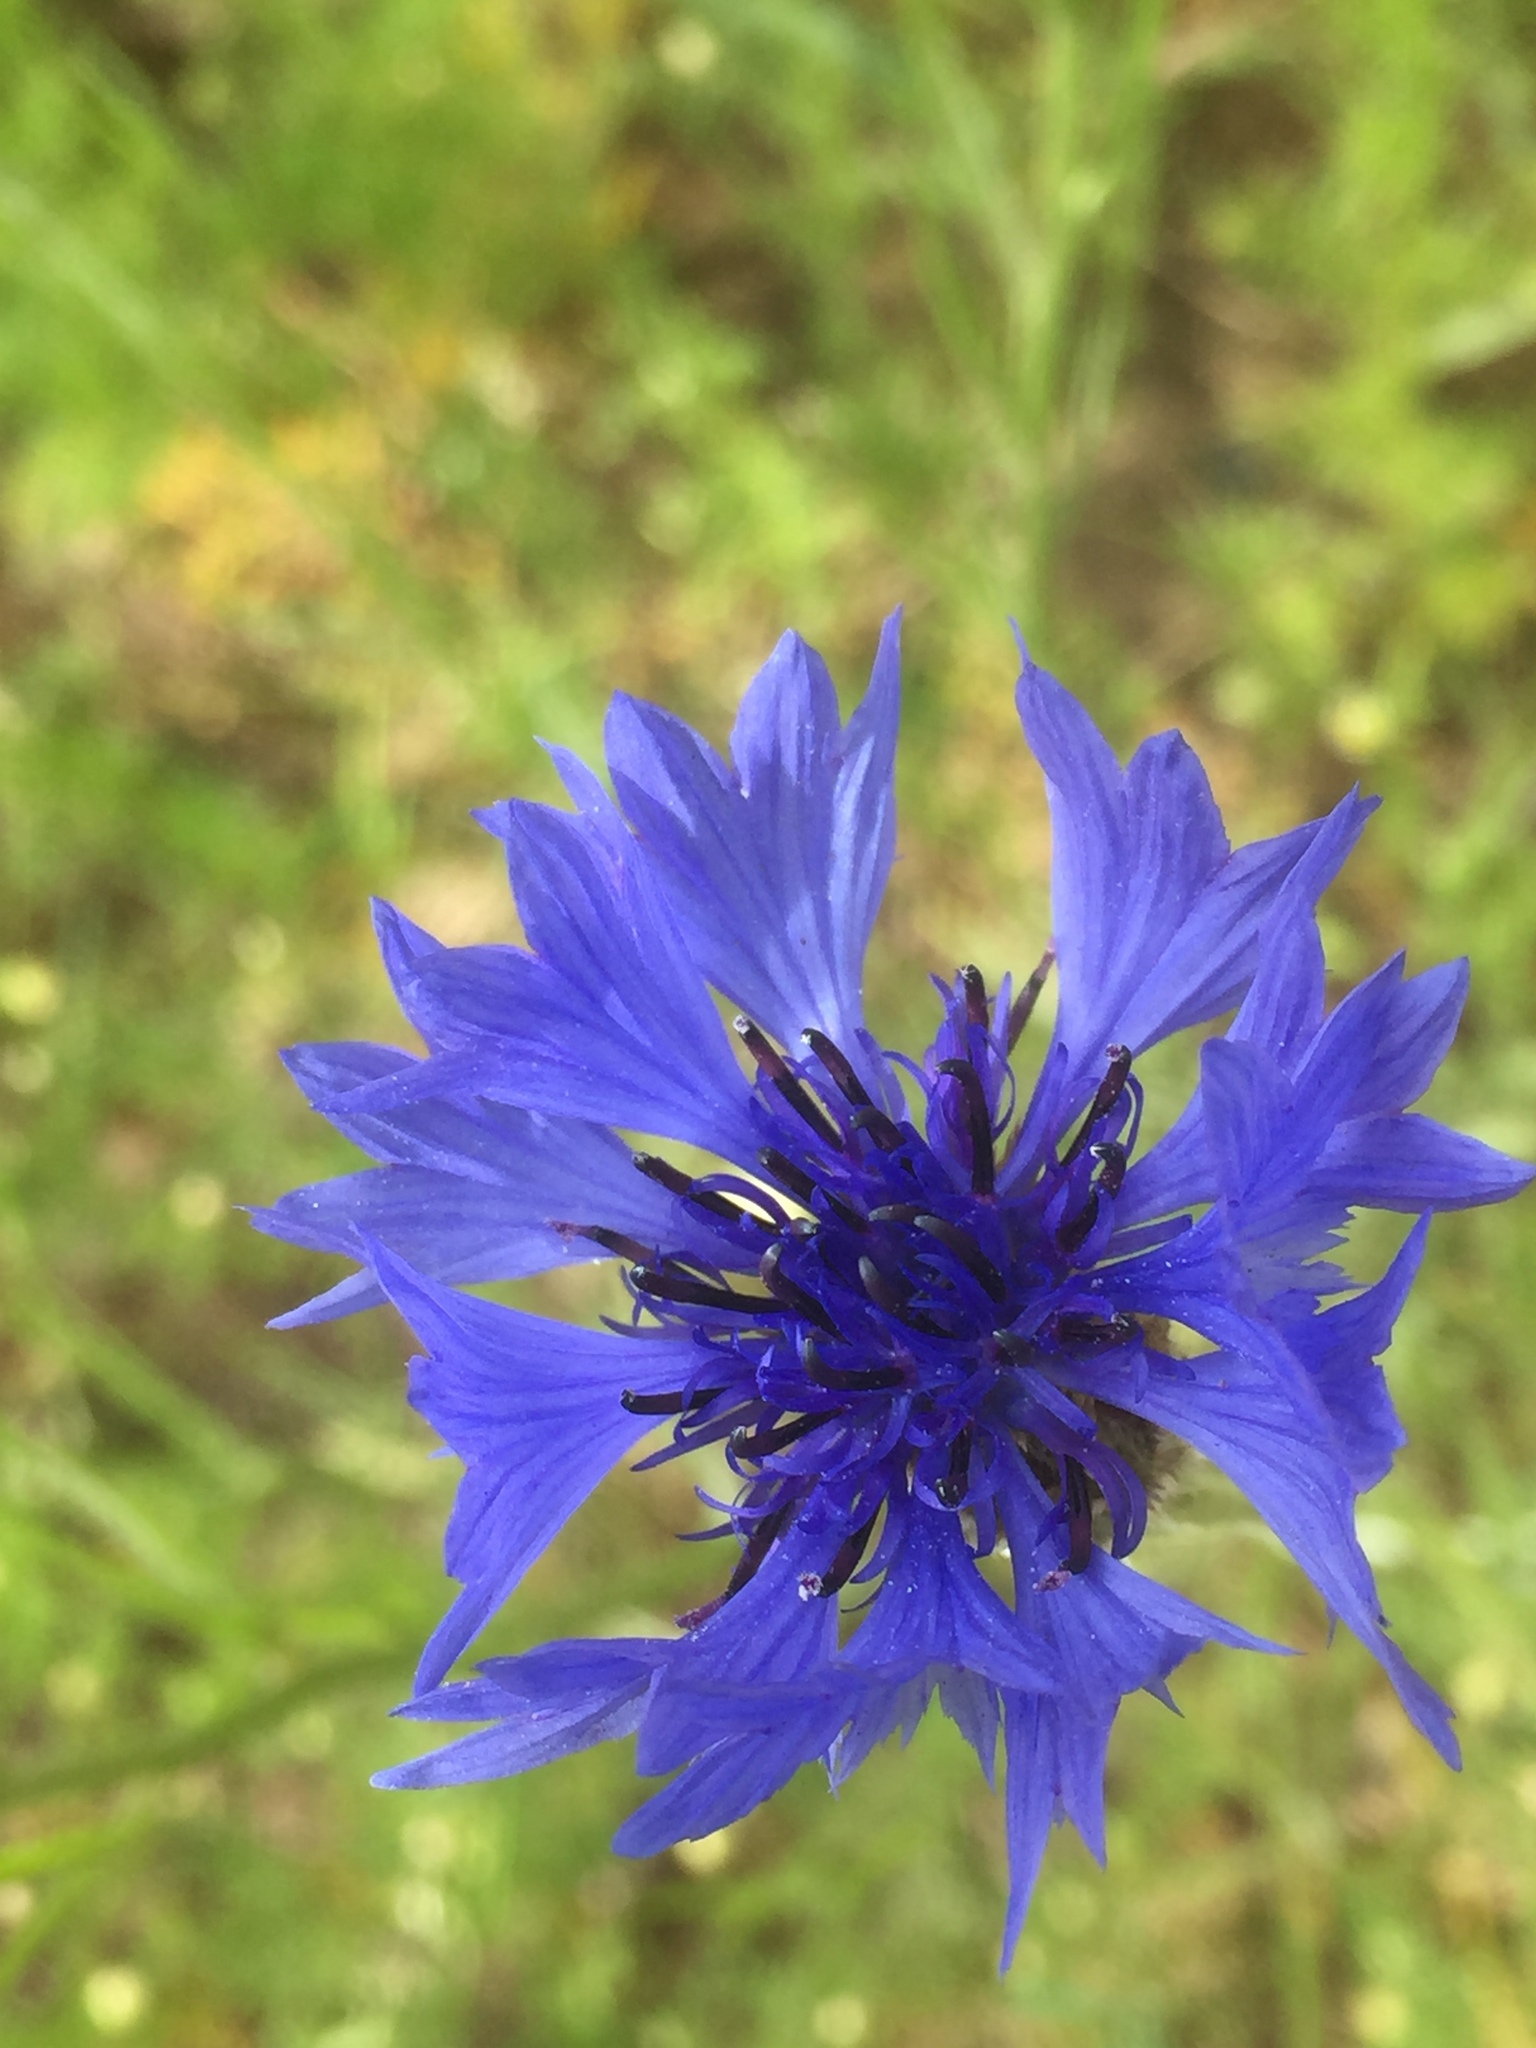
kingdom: Plantae
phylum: Tracheophyta
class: Magnoliopsida
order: Asterales
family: Asteraceae
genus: Centaurea
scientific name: Centaurea cyanus
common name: Cornflower
